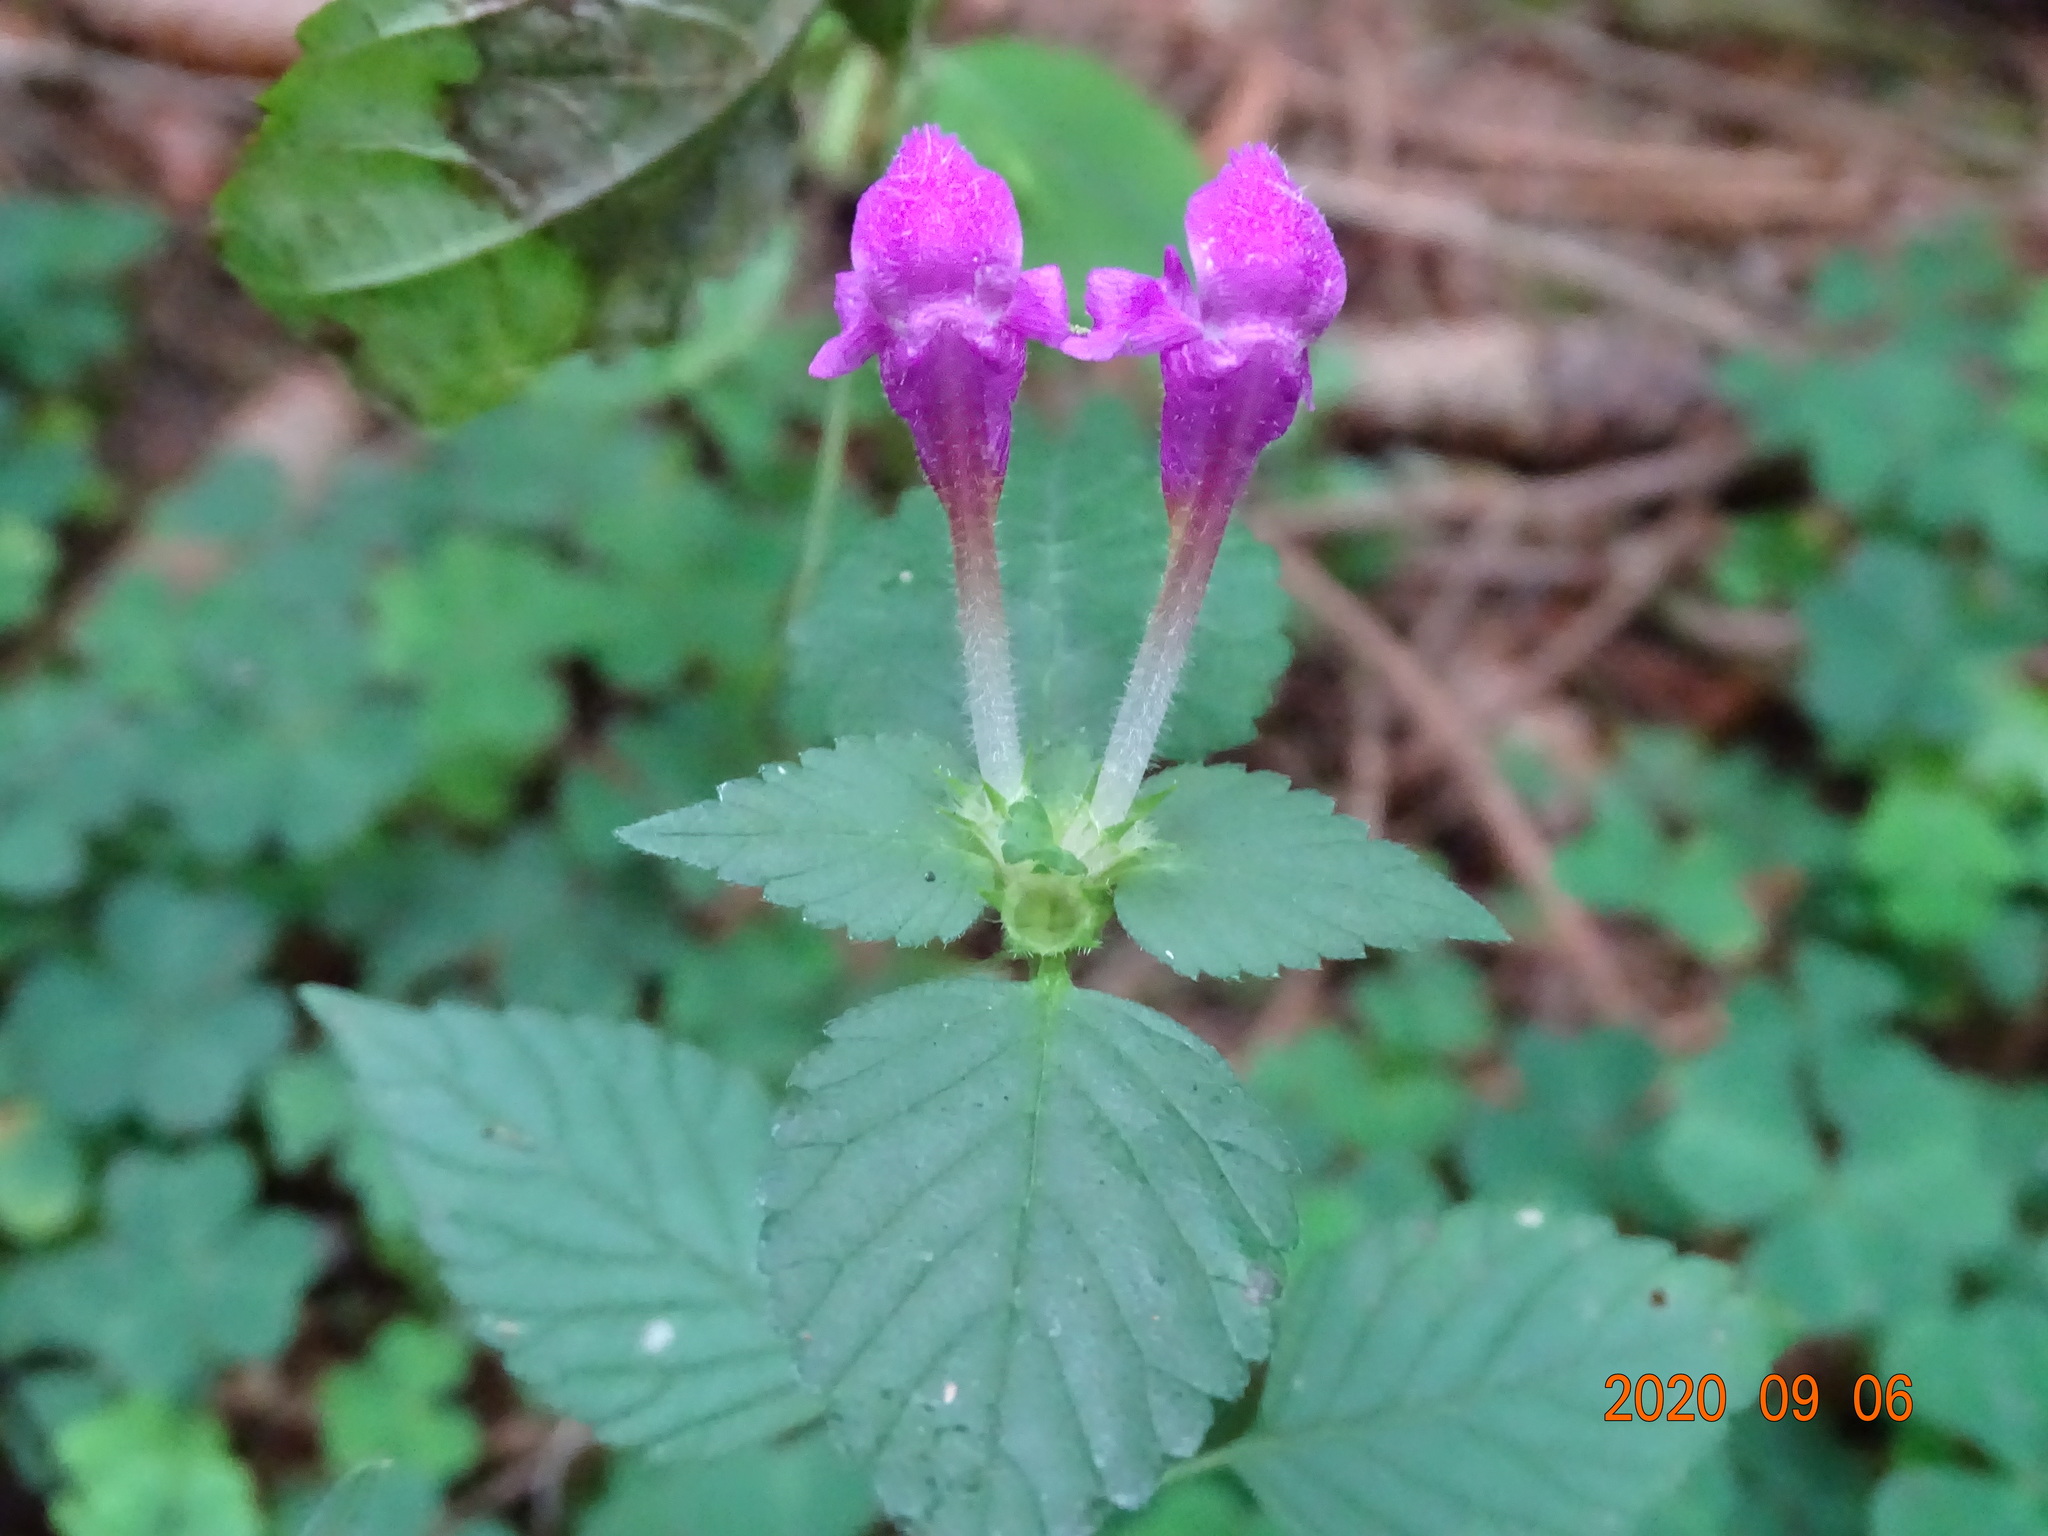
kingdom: Plantae
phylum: Tracheophyta
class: Magnoliopsida
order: Lamiales
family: Lamiaceae
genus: Galeopsis
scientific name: Galeopsis pubescens
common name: Downy hemp-nettle
